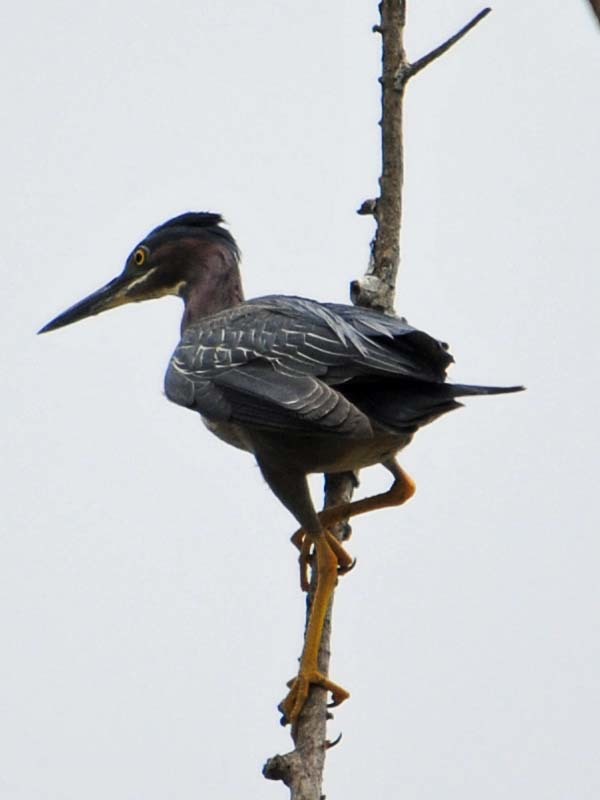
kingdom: Animalia
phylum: Chordata
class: Aves
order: Pelecaniformes
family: Ardeidae
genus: Butorides
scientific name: Butorides virescens
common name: Green heron
